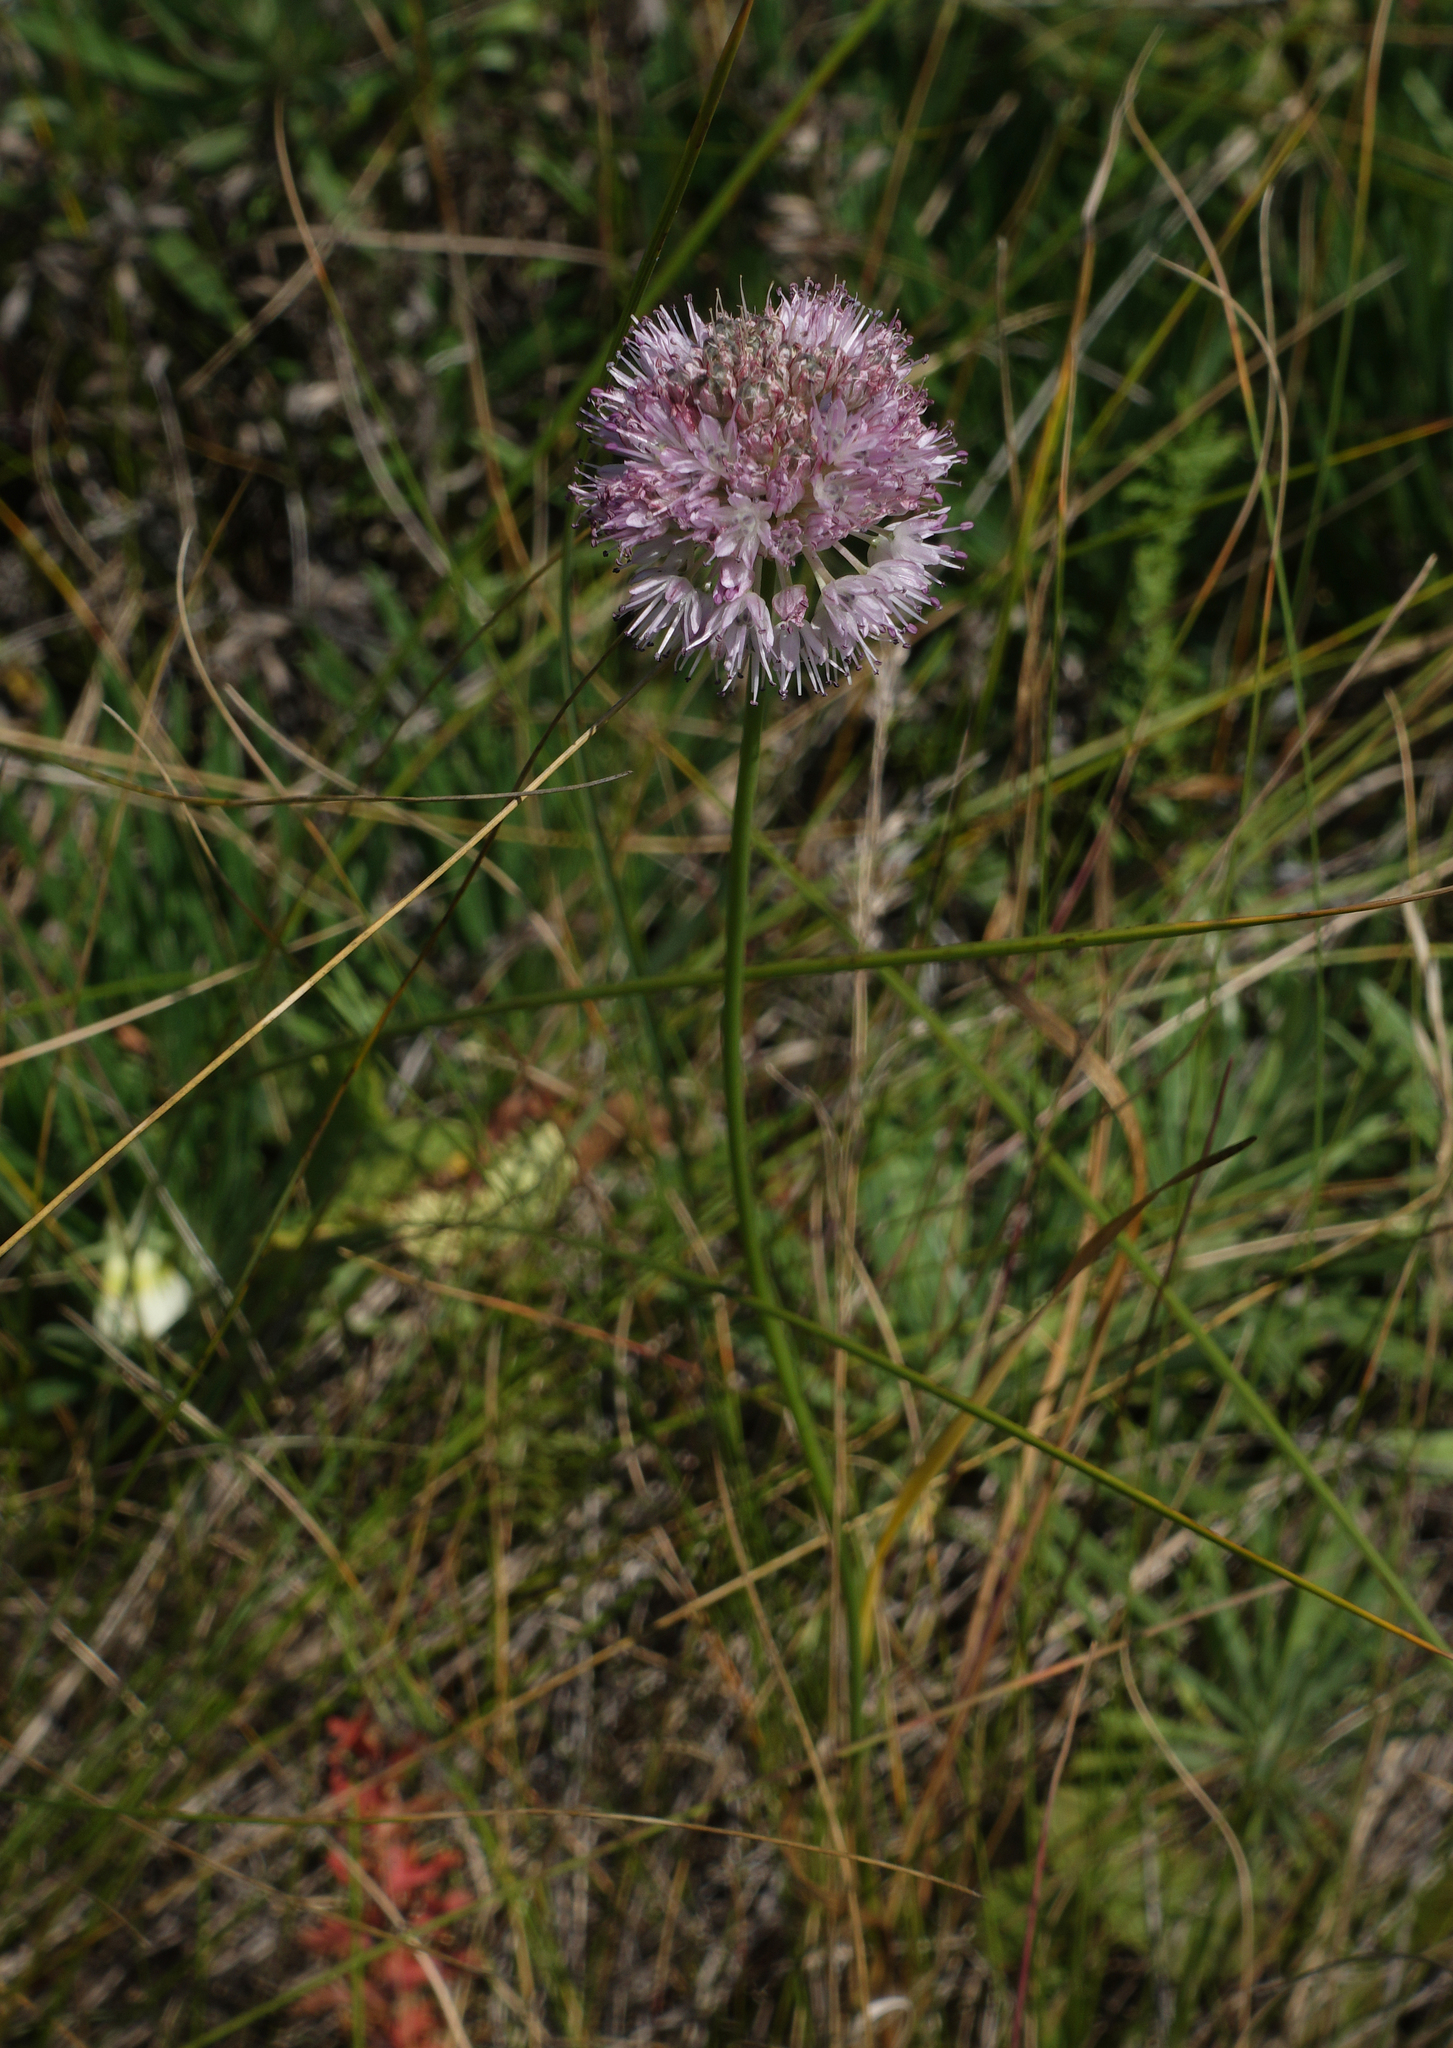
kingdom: Plantae
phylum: Tracheophyta
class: Liliopsida
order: Asparagales
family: Amaryllidaceae
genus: Allium
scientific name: Allium lineare
